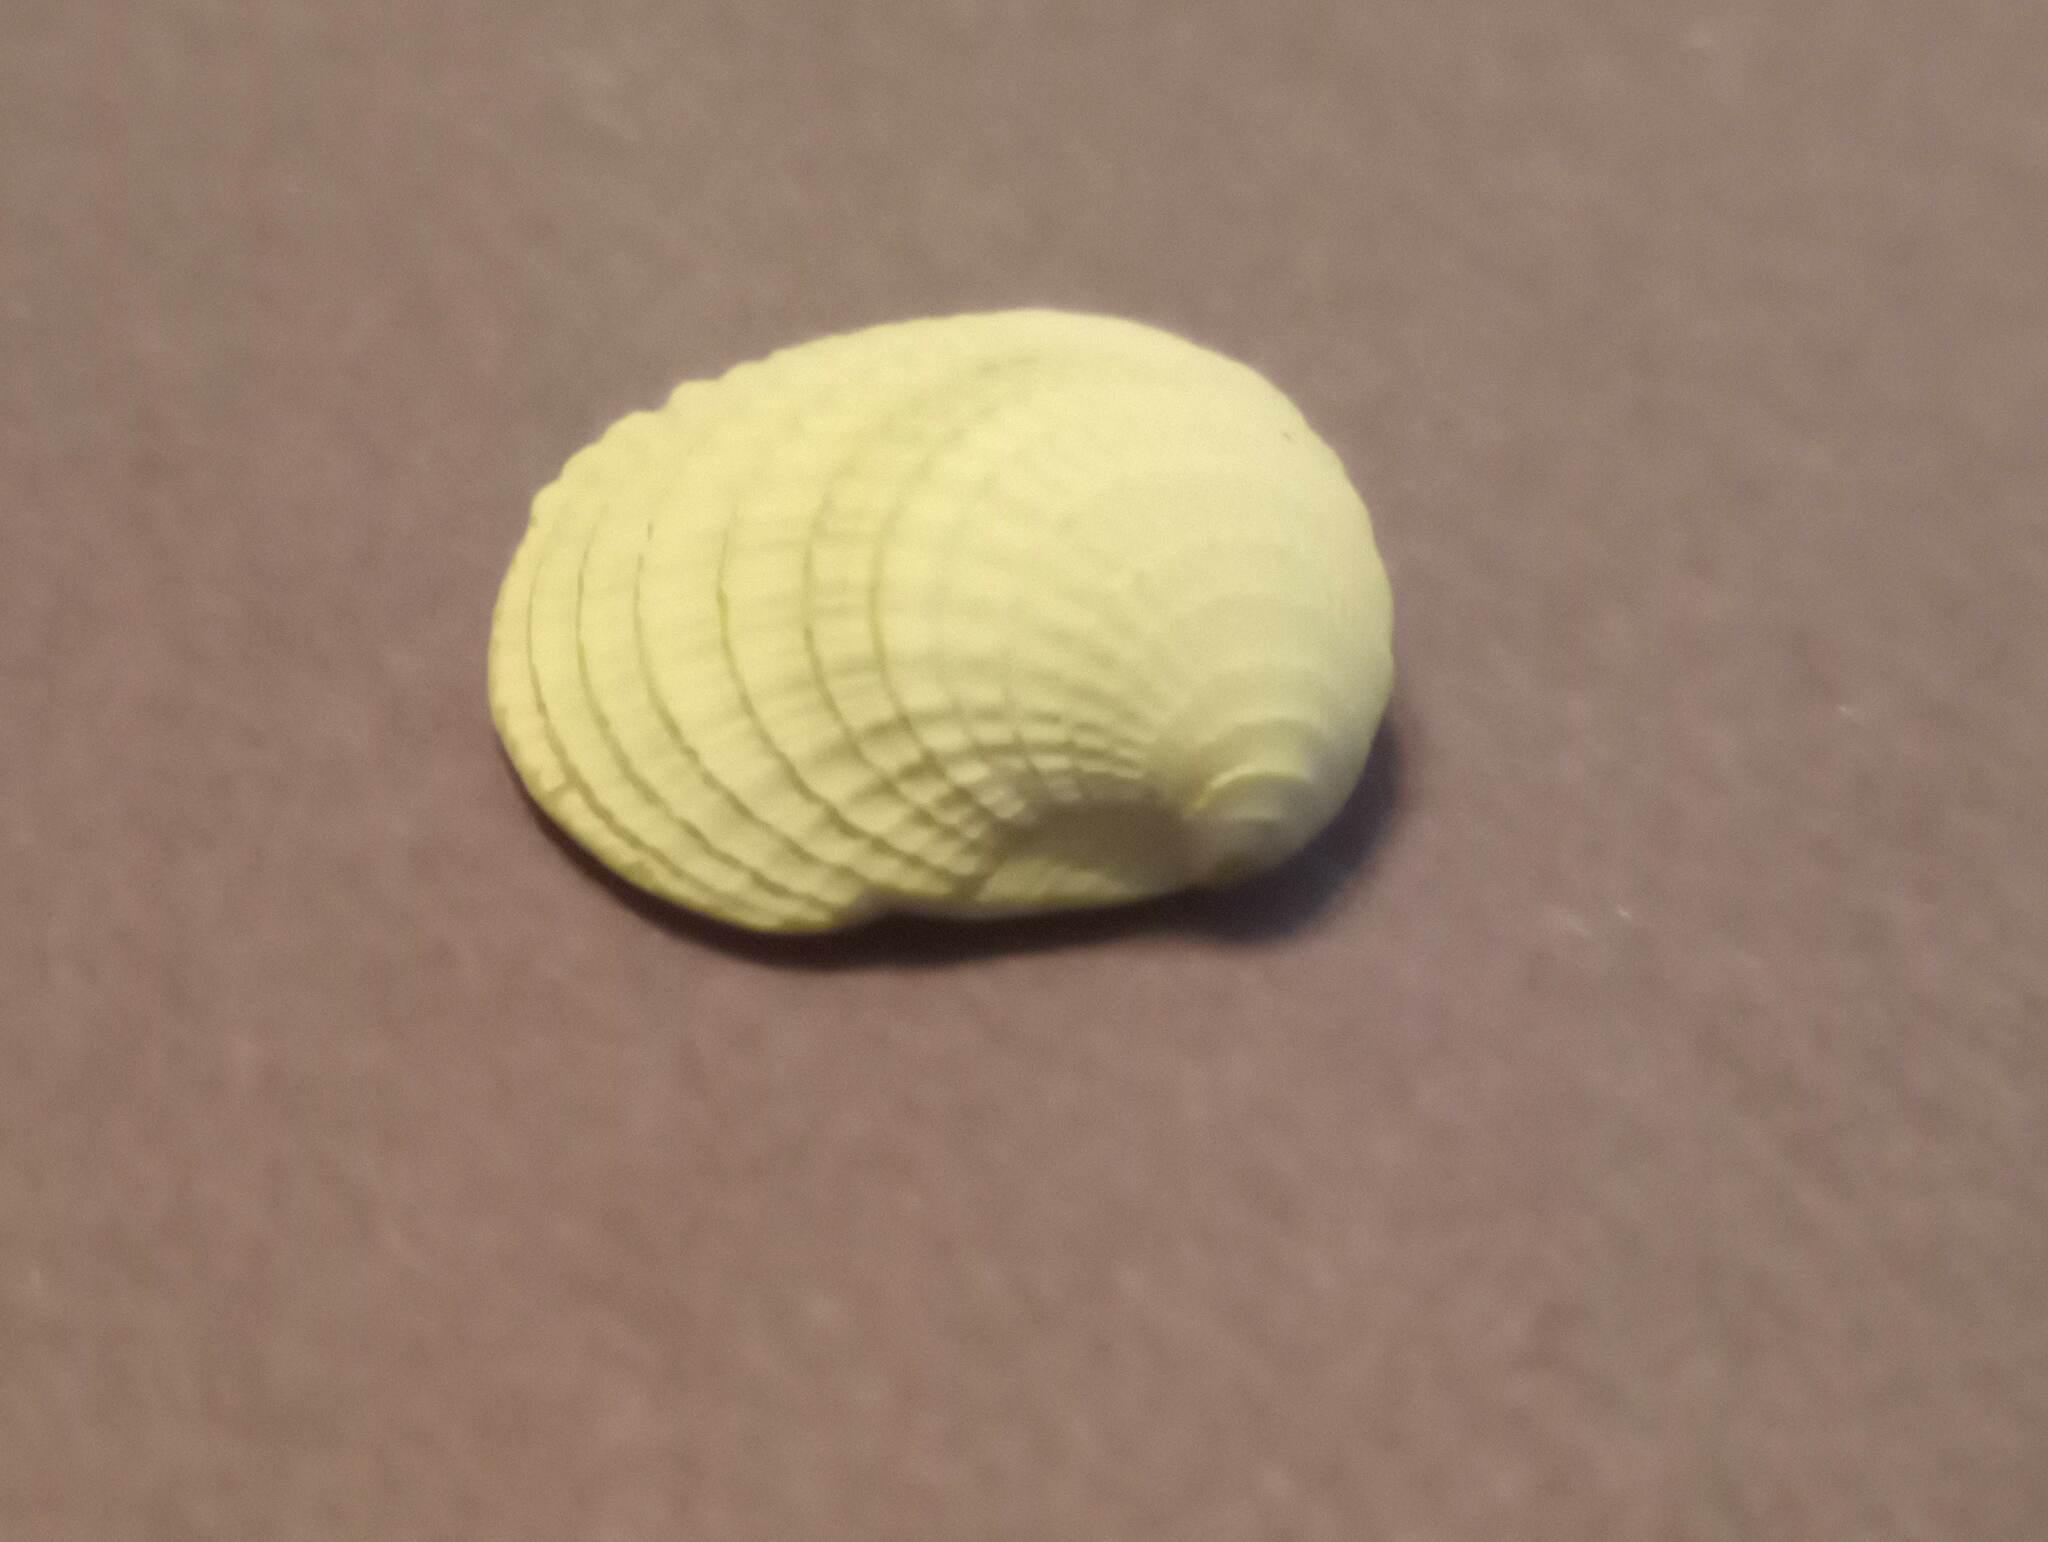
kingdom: Animalia
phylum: Mollusca
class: Bivalvia
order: Venerida
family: Veneridae
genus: Chione
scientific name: Chione elevata
